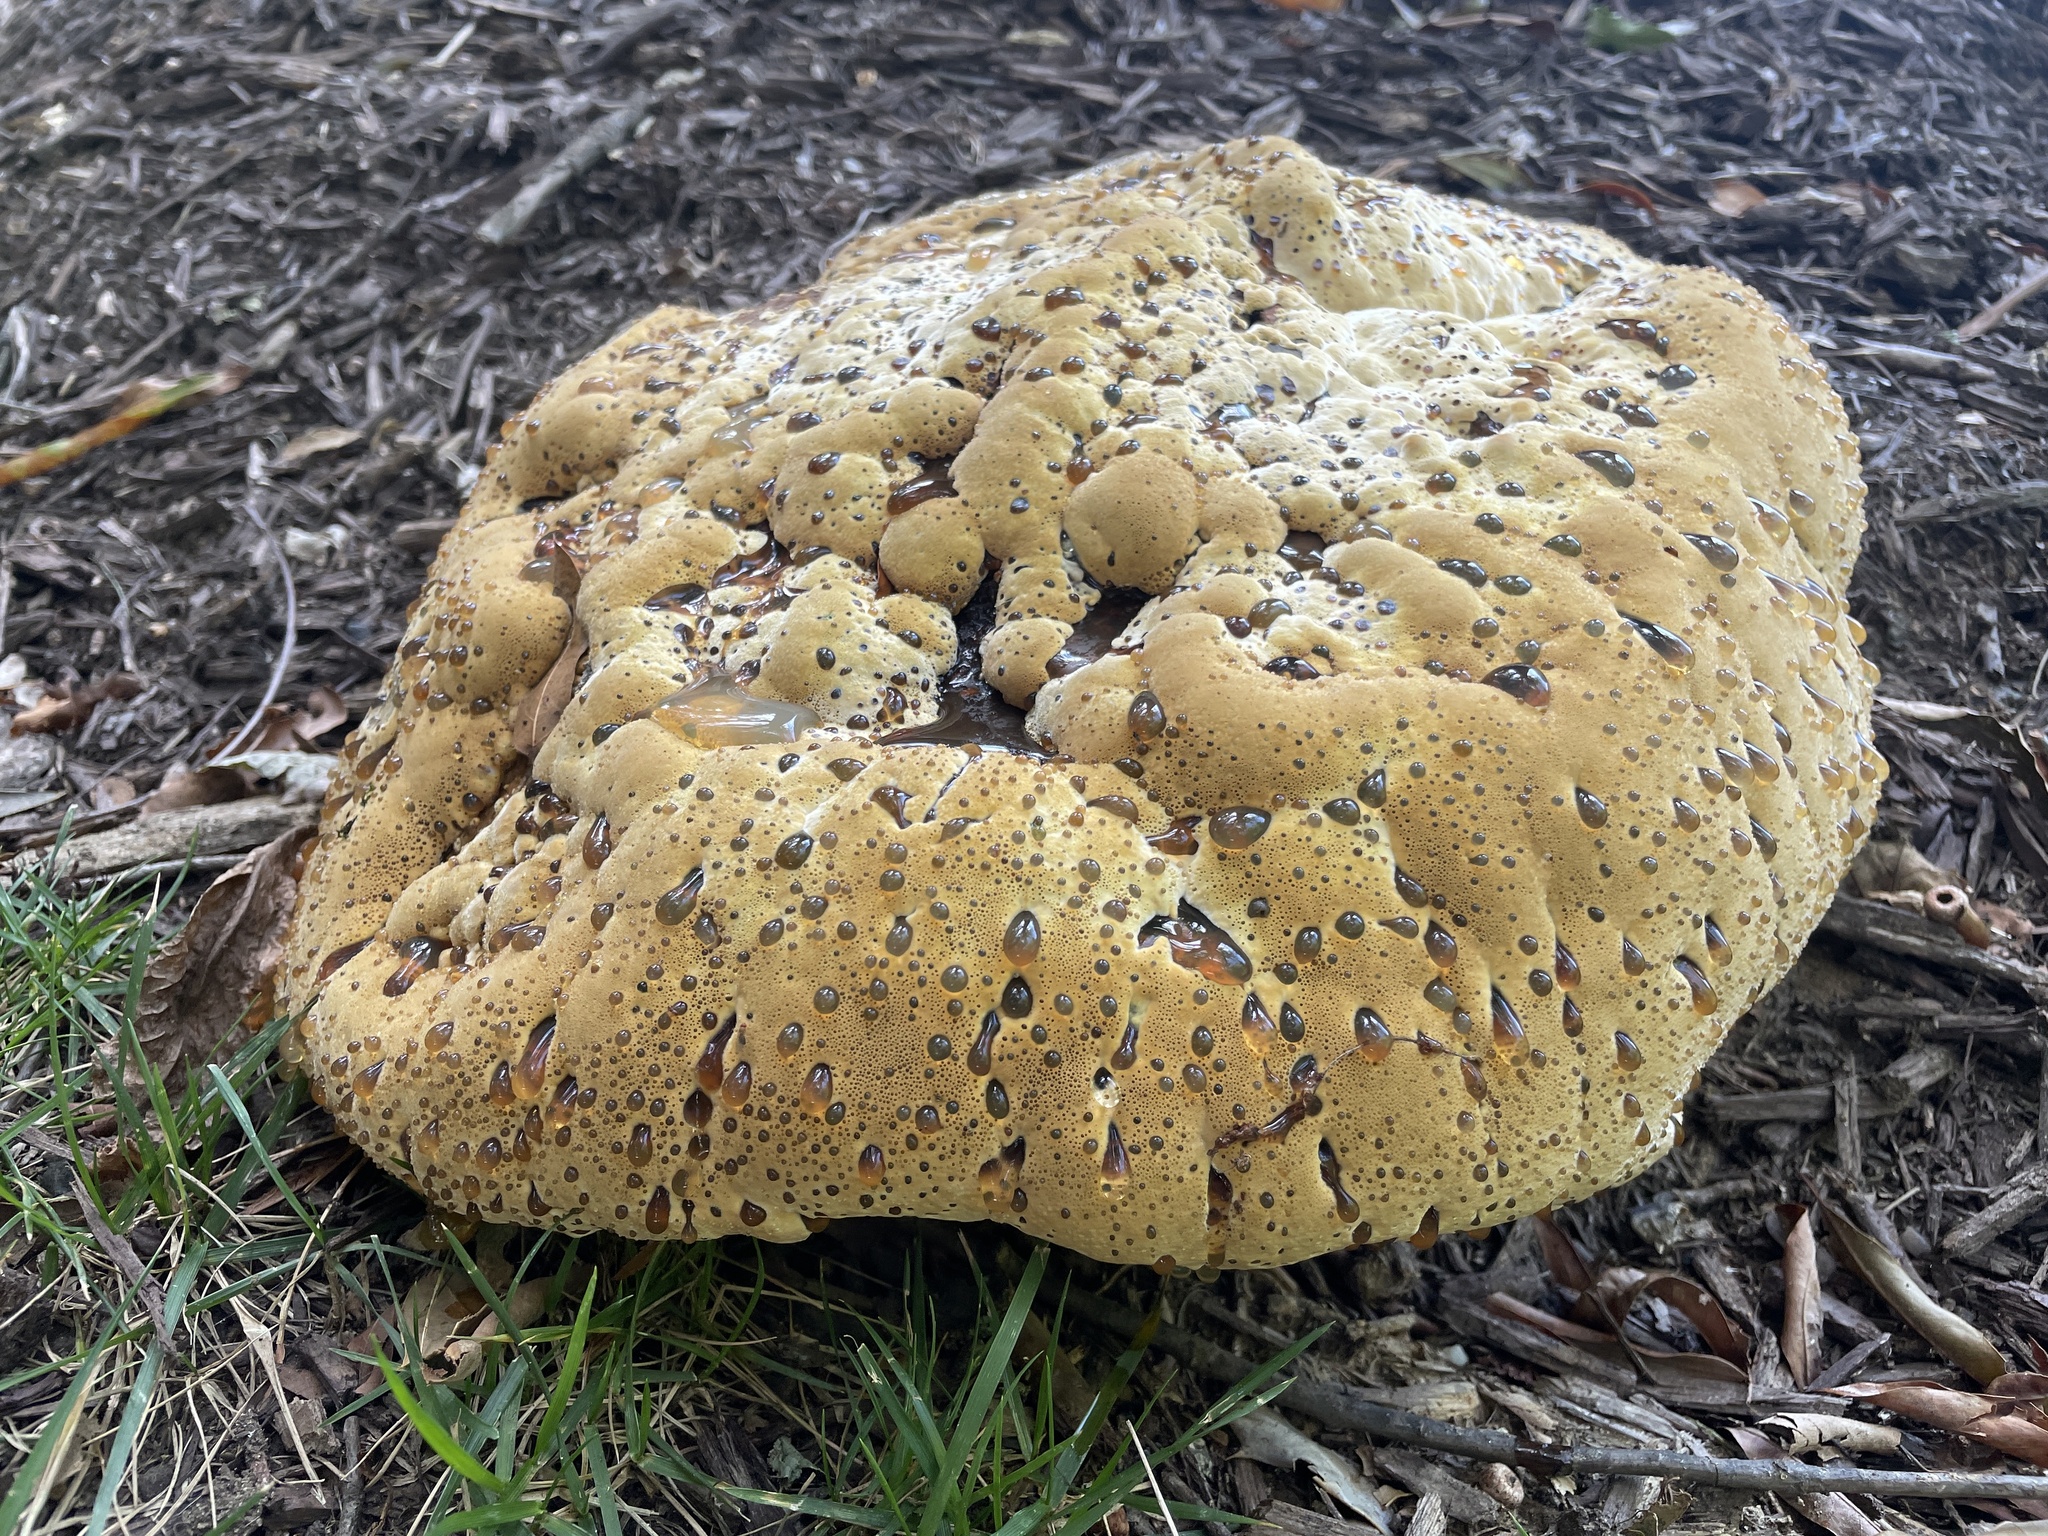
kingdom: Fungi
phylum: Basidiomycota
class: Agaricomycetes
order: Hymenochaetales
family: Hymenochaetaceae
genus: Pseudoinonotus
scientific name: Pseudoinonotus dryadeus
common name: Oak bracket
